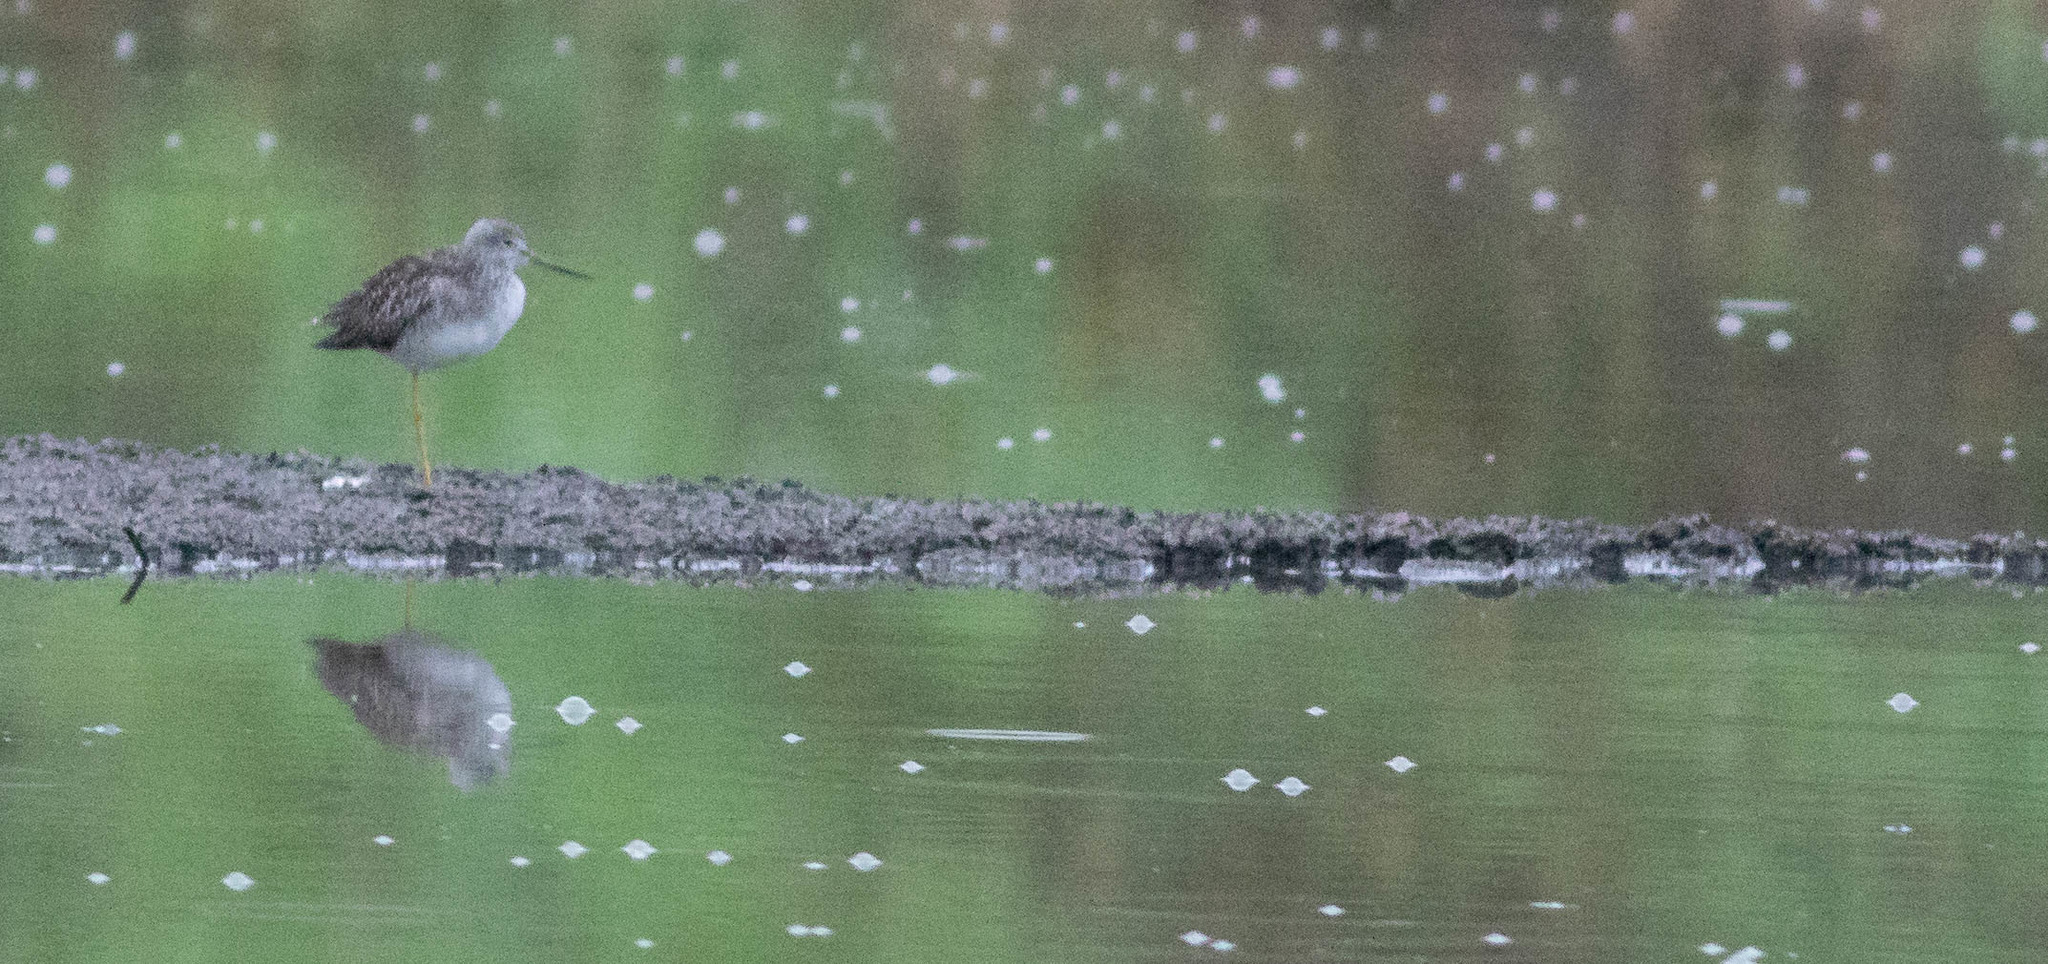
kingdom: Animalia
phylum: Chordata
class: Aves
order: Charadriiformes
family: Scolopacidae
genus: Tringa
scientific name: Tringa melanoleuca
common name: Greater yellowlegs
